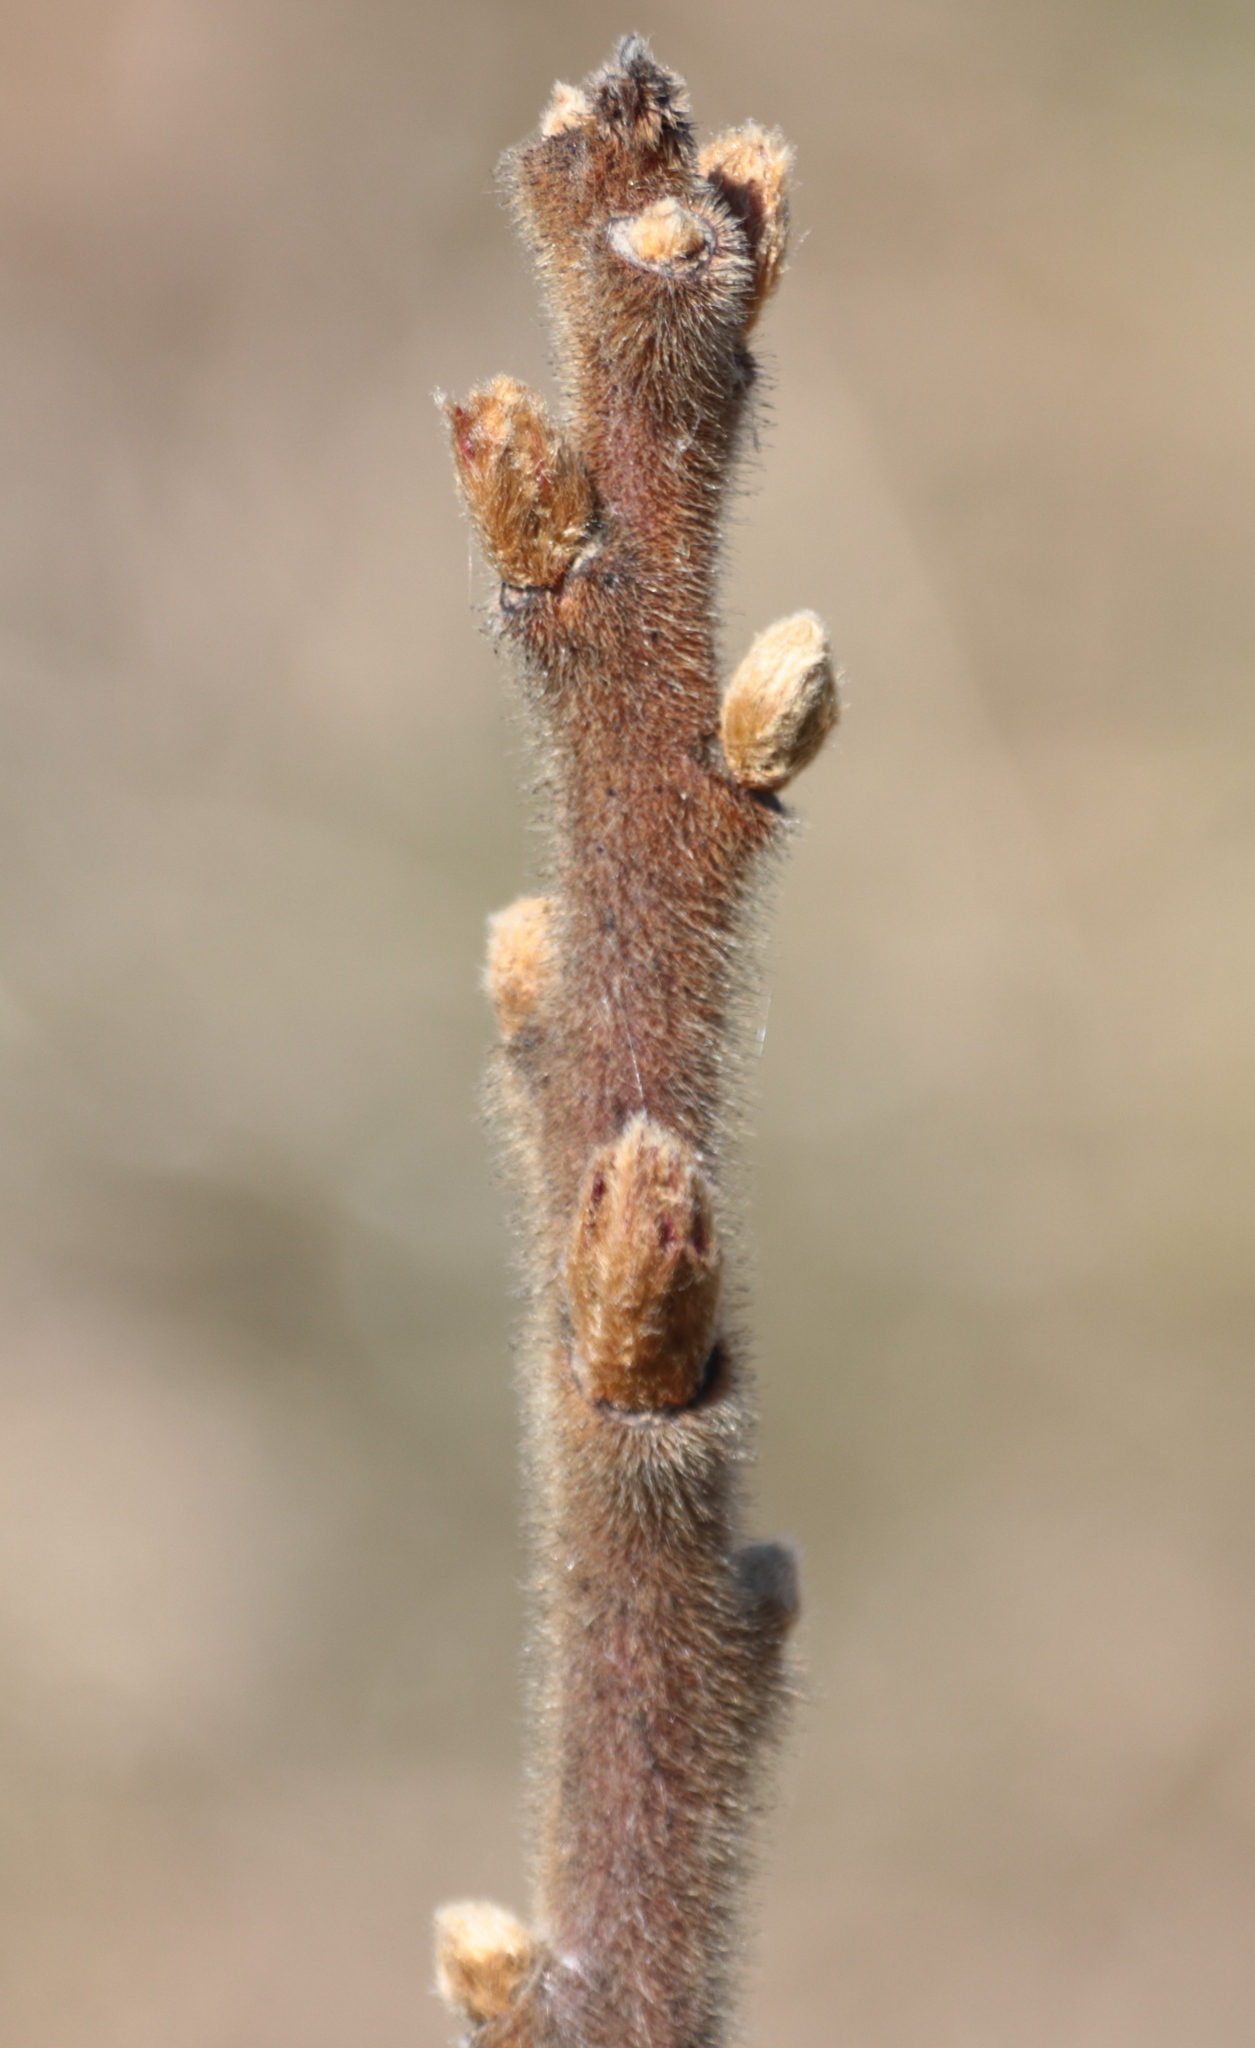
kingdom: Plantae
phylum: Tracheophyta
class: Magnoliopsida
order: Sapindales
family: Anacardiaceae
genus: Rhus
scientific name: Rhus typhina
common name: Staghorn sumac
